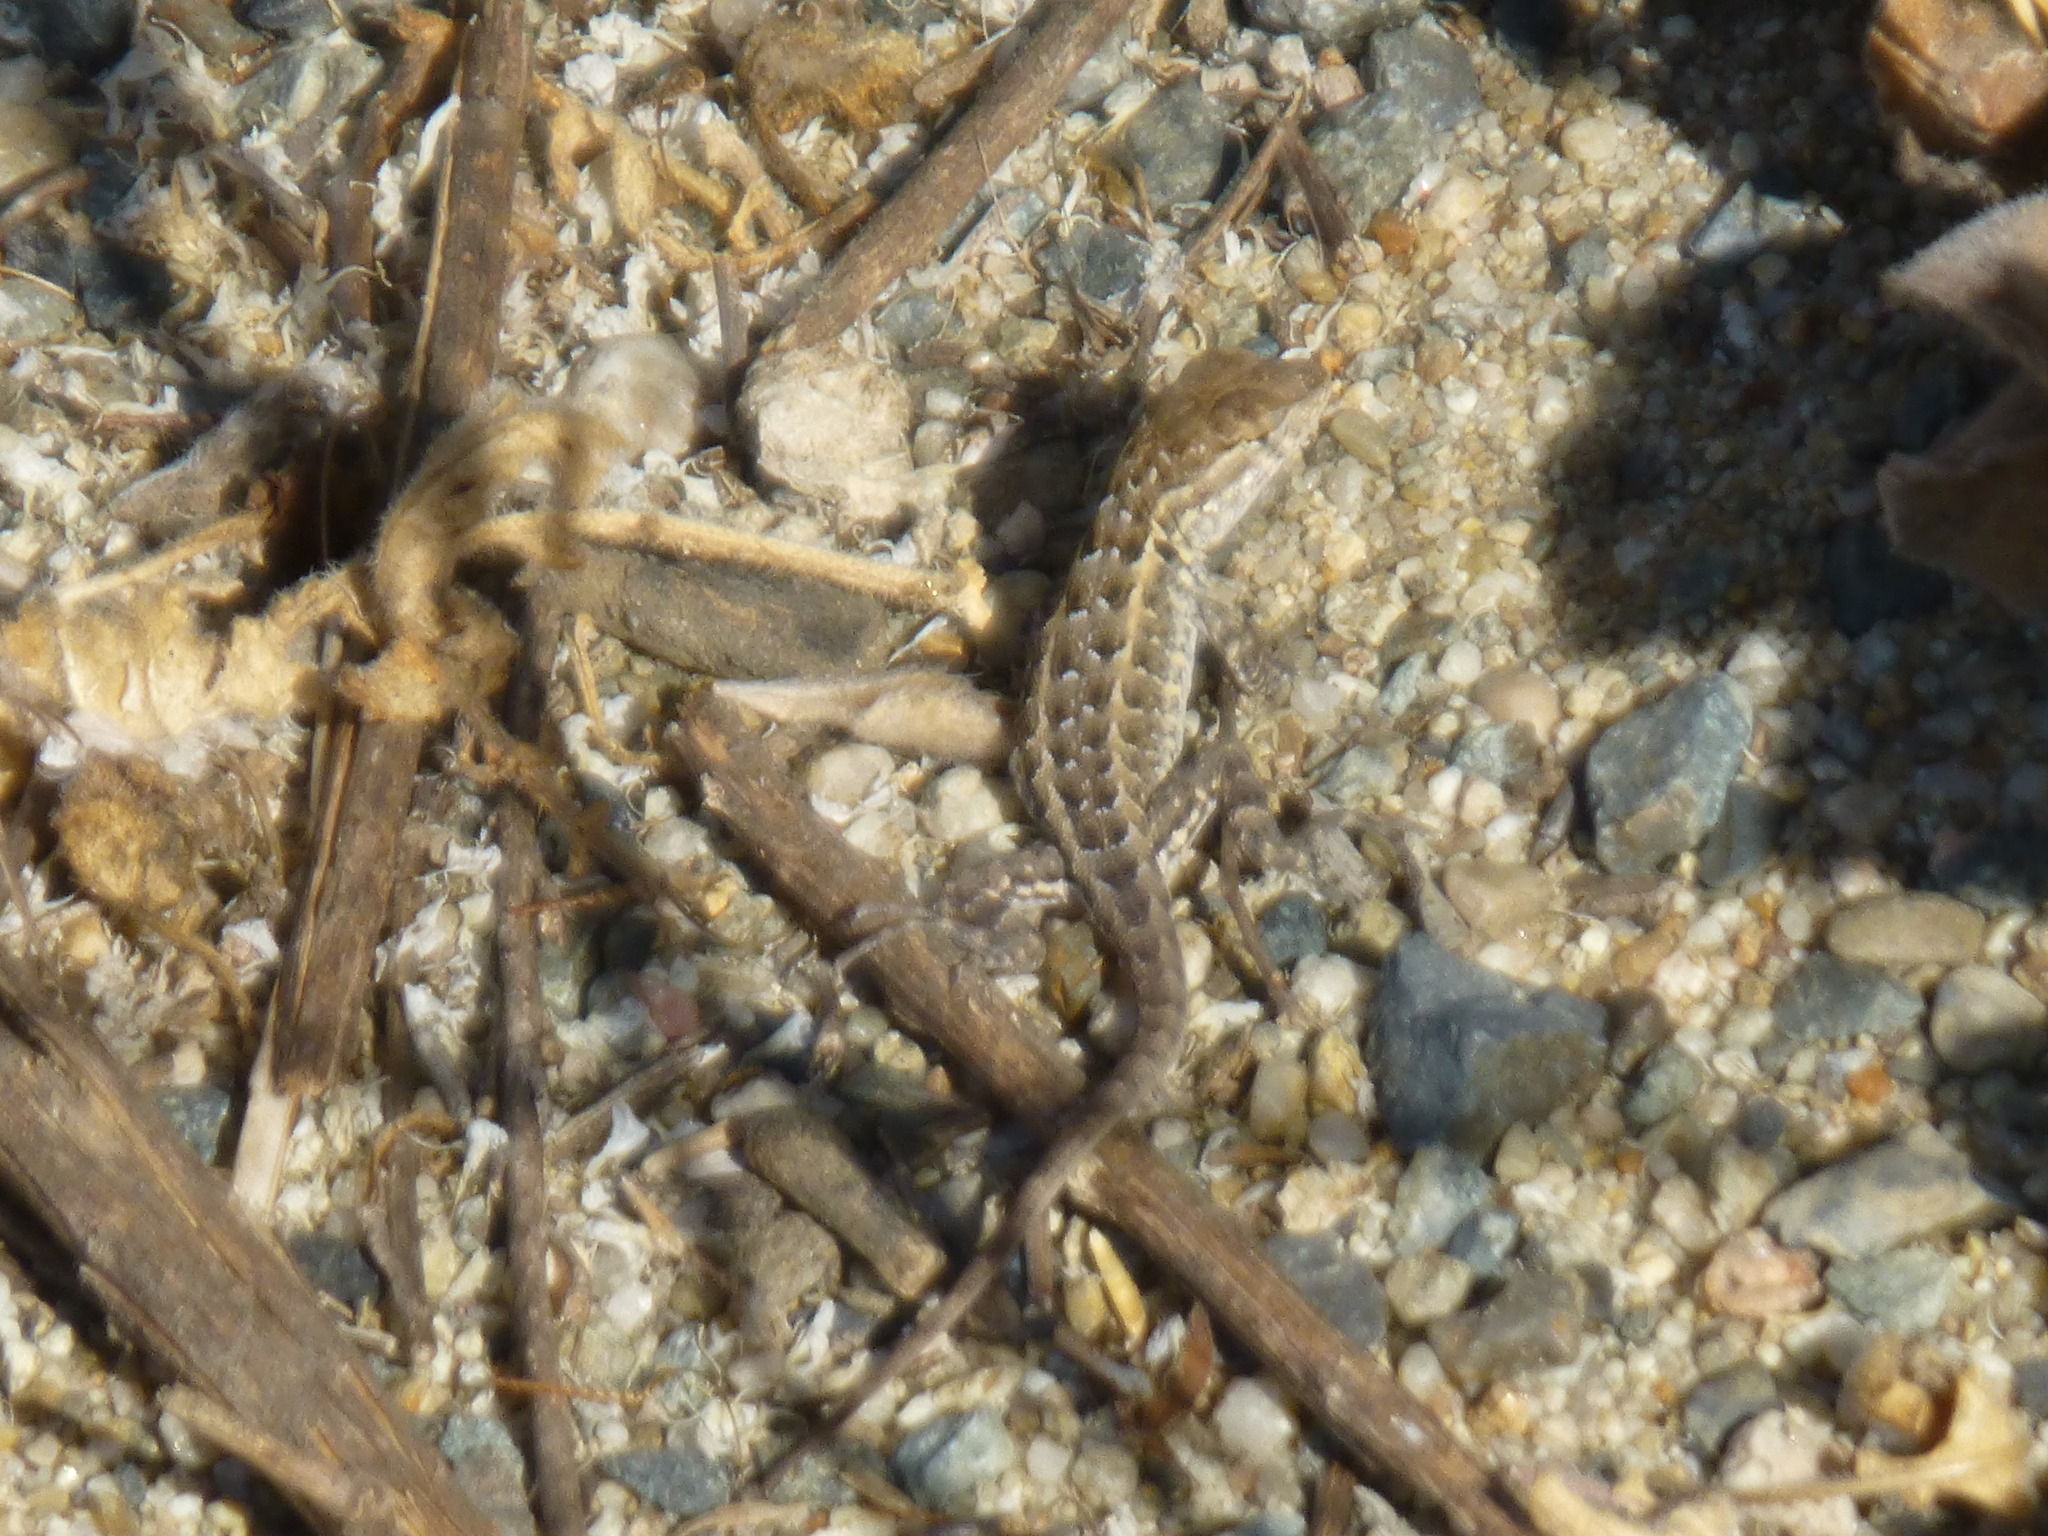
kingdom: Animalia
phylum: Chordata
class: Squamata
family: Phrynosomatidae
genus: Uta
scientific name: Uta stansburiana
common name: Side-blotched lizard
